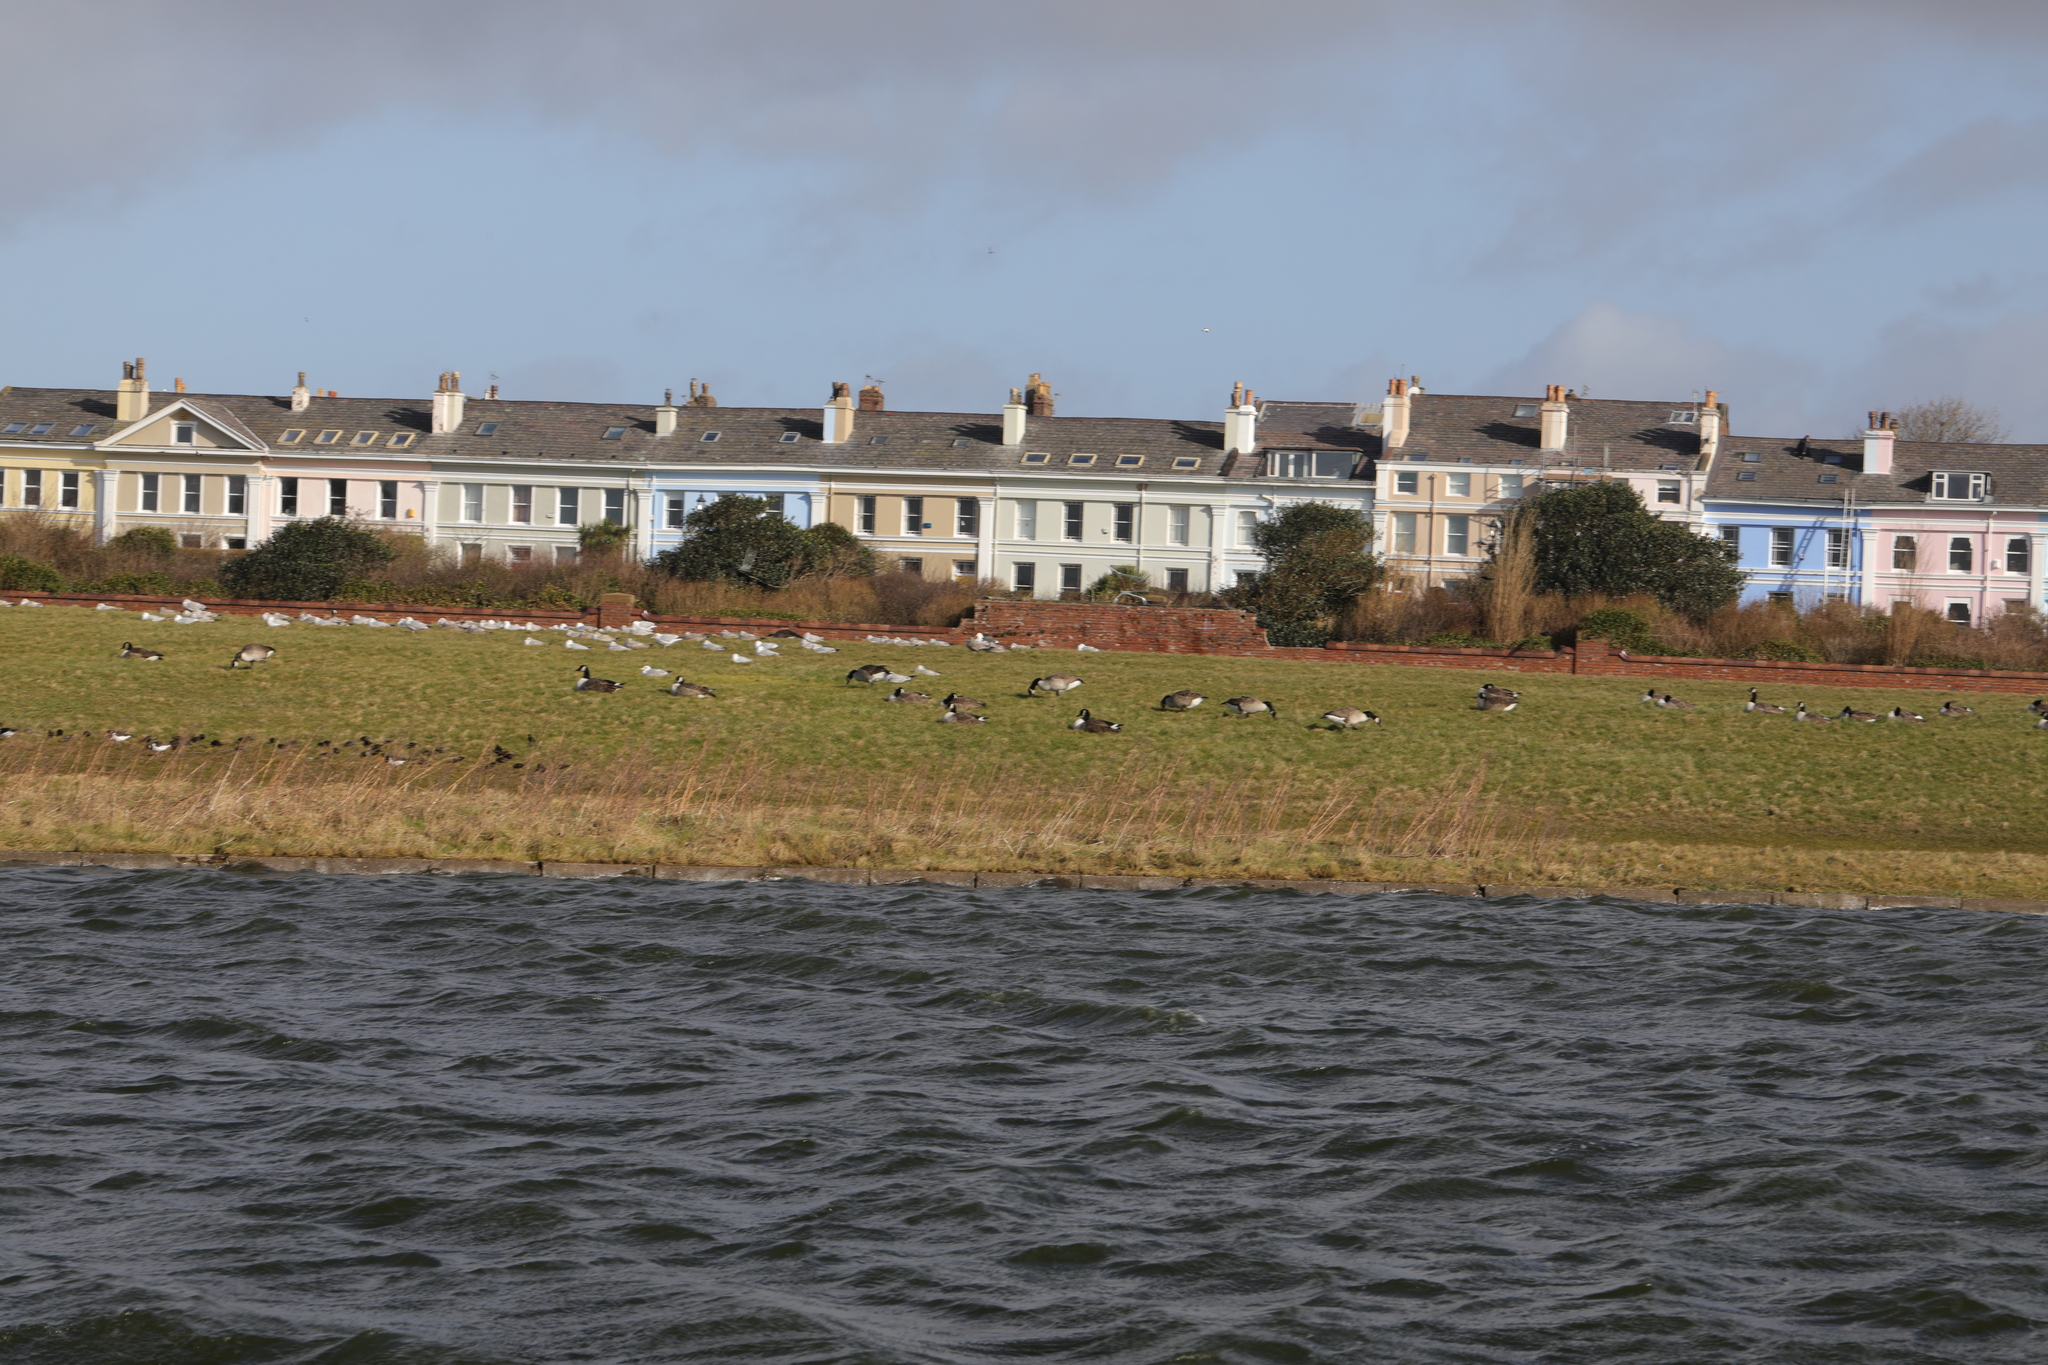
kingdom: Animalia
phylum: Chordata
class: Aves
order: Anseriformes
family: Anatidae
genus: Branta
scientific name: Branta canadensis
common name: Canada goose
